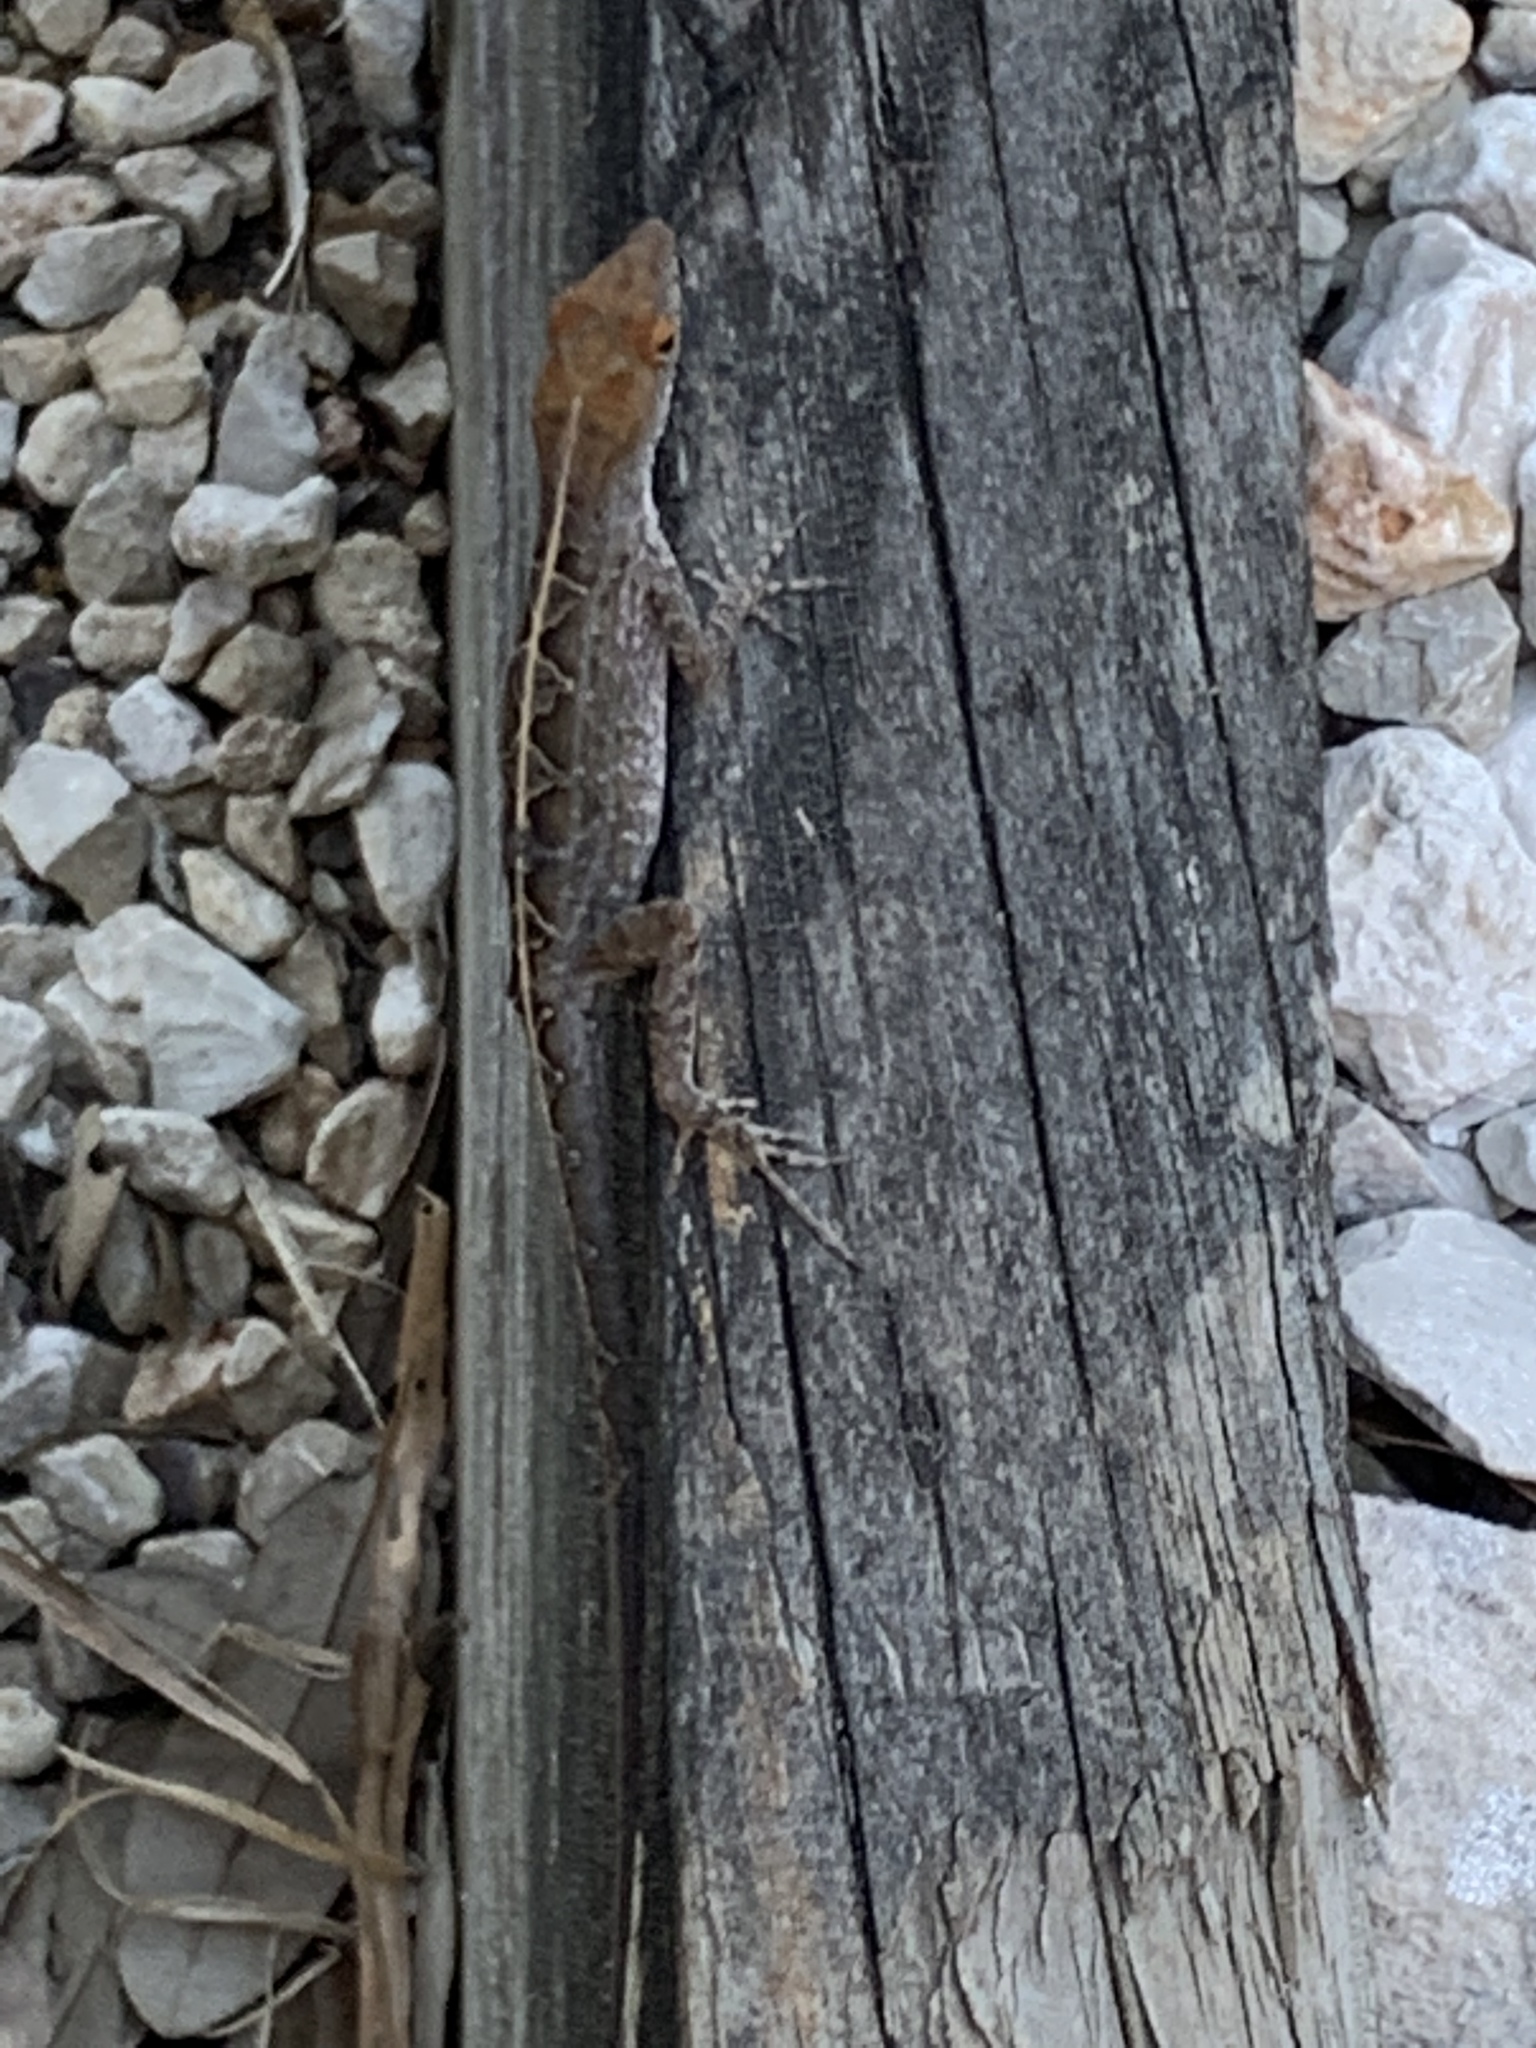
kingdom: Animalia
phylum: Chordata
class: Squamata
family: Dactyloidae
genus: Anolis
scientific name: Anolis sagrei
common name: Brown anole
